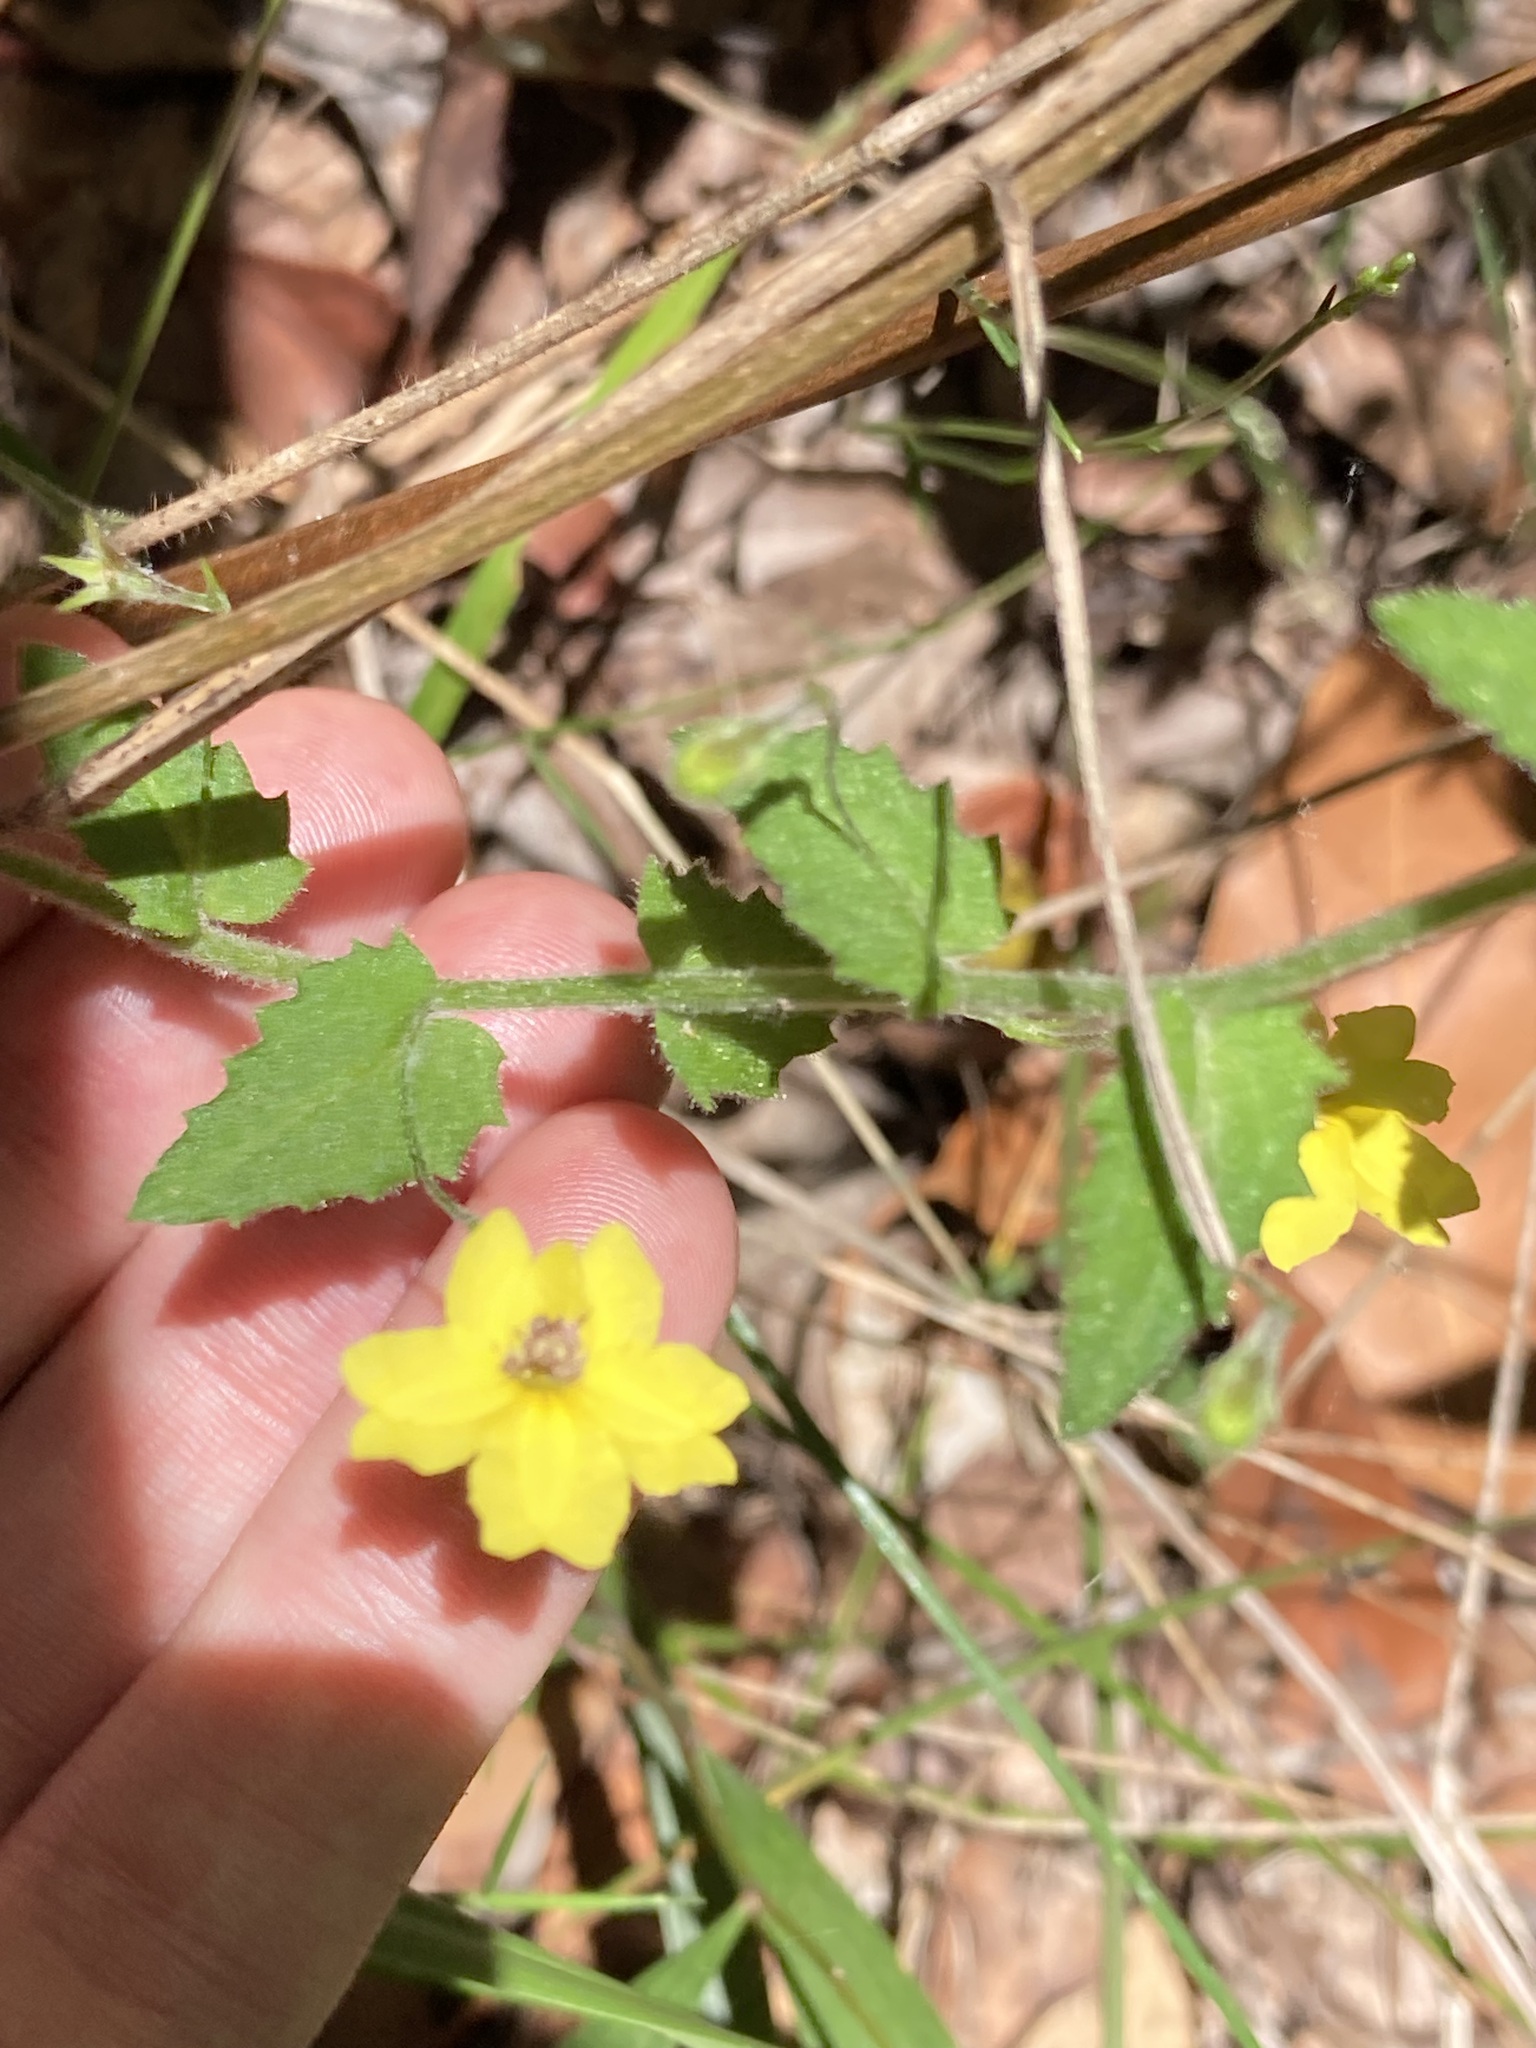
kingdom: Plantae
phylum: Tracheophyta
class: Magnoliopsida
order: Asterales
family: Goodeniaceae
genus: Goodenia
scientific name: Goodenia heterophylla
